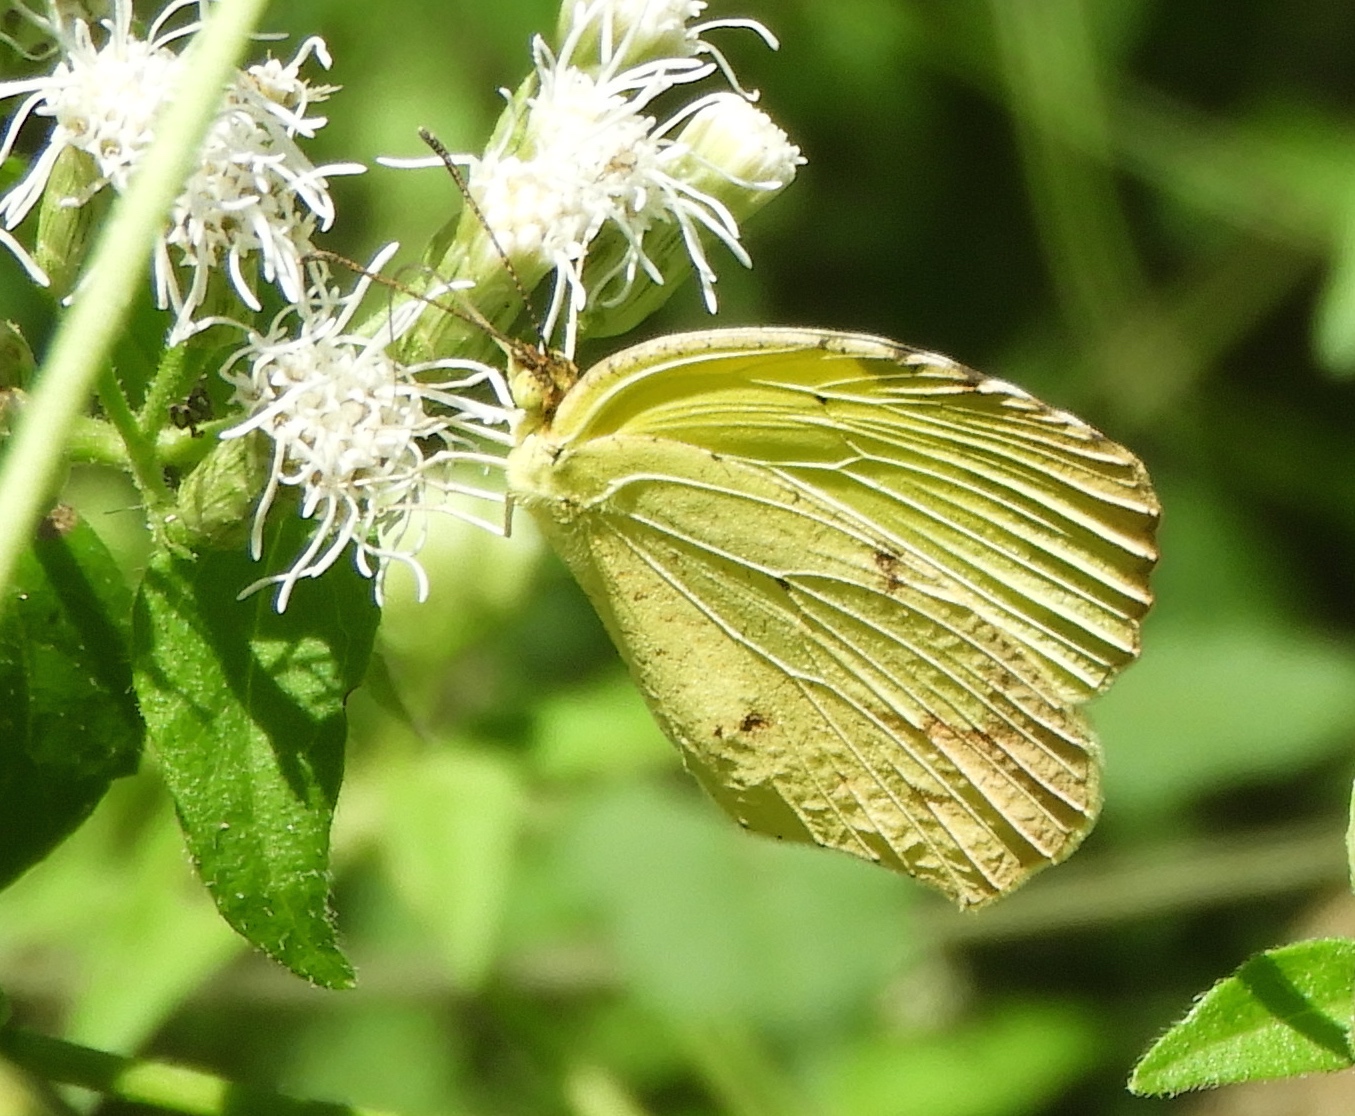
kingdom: Animalia
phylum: Arthropoda
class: Insecta
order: Lepidoptera
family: Pieridae
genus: Abaeis
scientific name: Abaeis boisduvaliana
